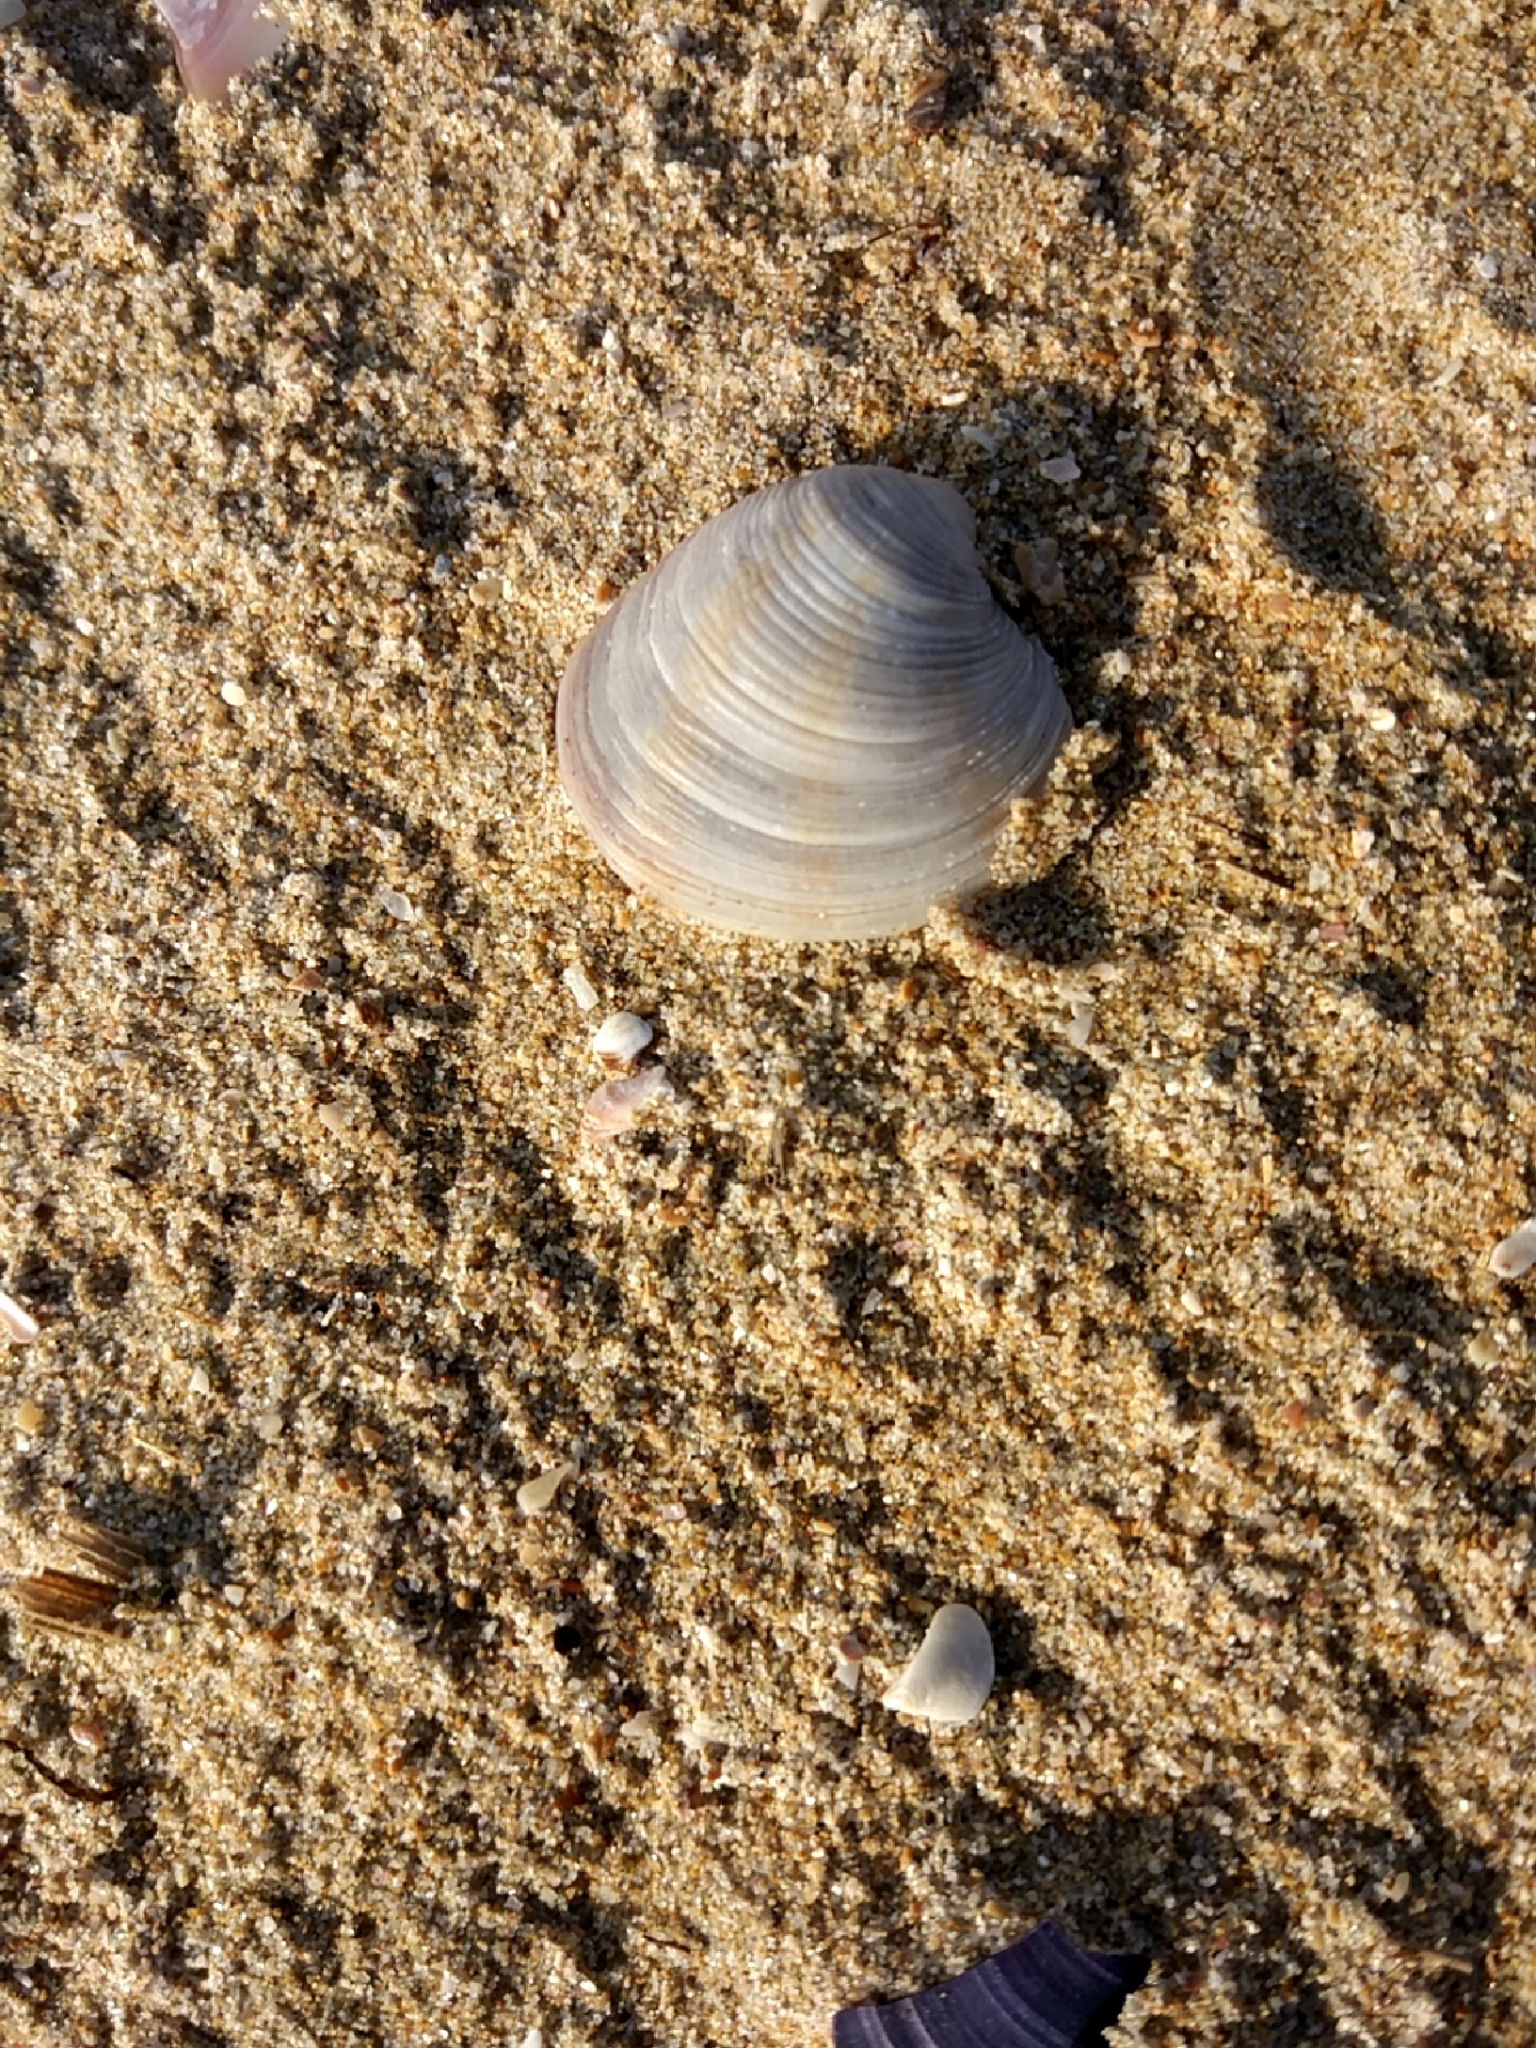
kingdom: Animalia
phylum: Mollusca
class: Bivalvia
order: Venerida
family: Veneridae
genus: Chamelea
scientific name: Chamelea gallina
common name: Chicken venus
